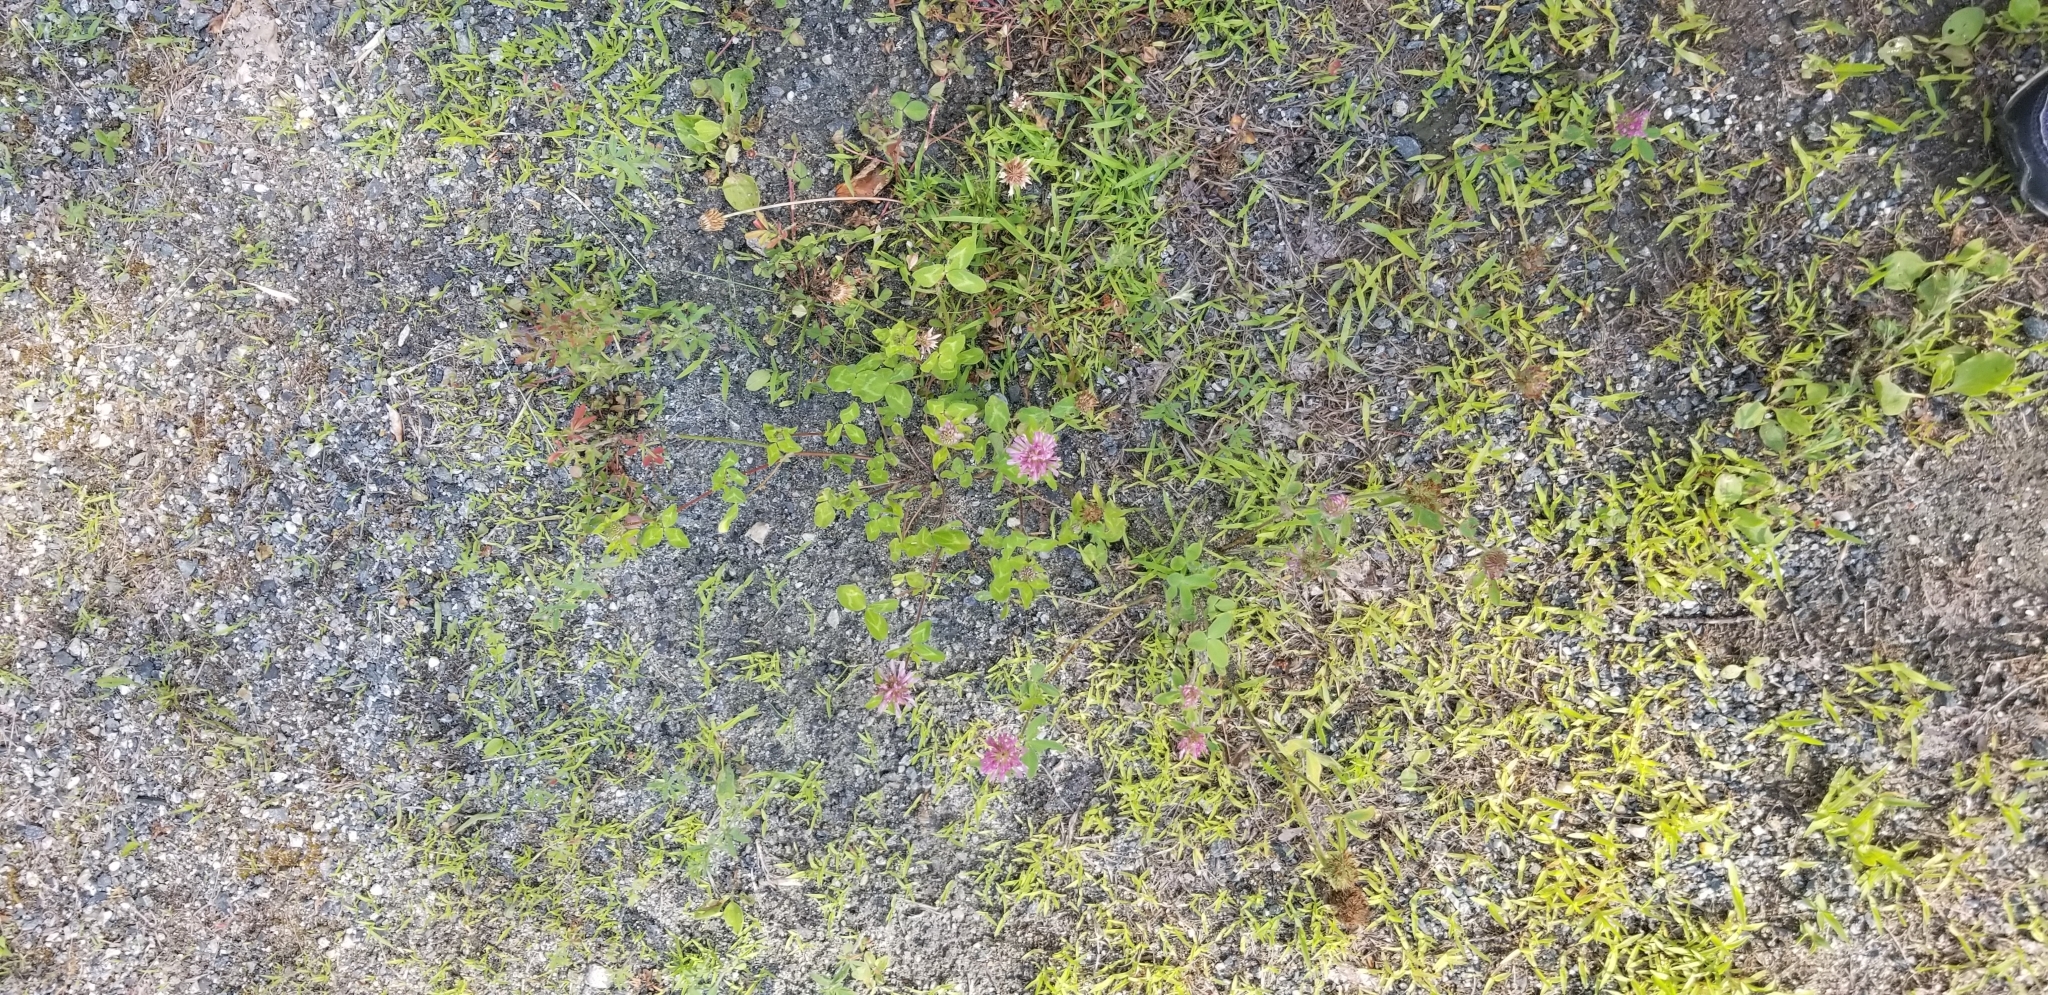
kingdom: Plantae
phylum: Tracheophyta
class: Magnoliopsida
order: Fabales
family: Fabaceae
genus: Trifolium
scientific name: Trifolium pratense
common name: Red clover
